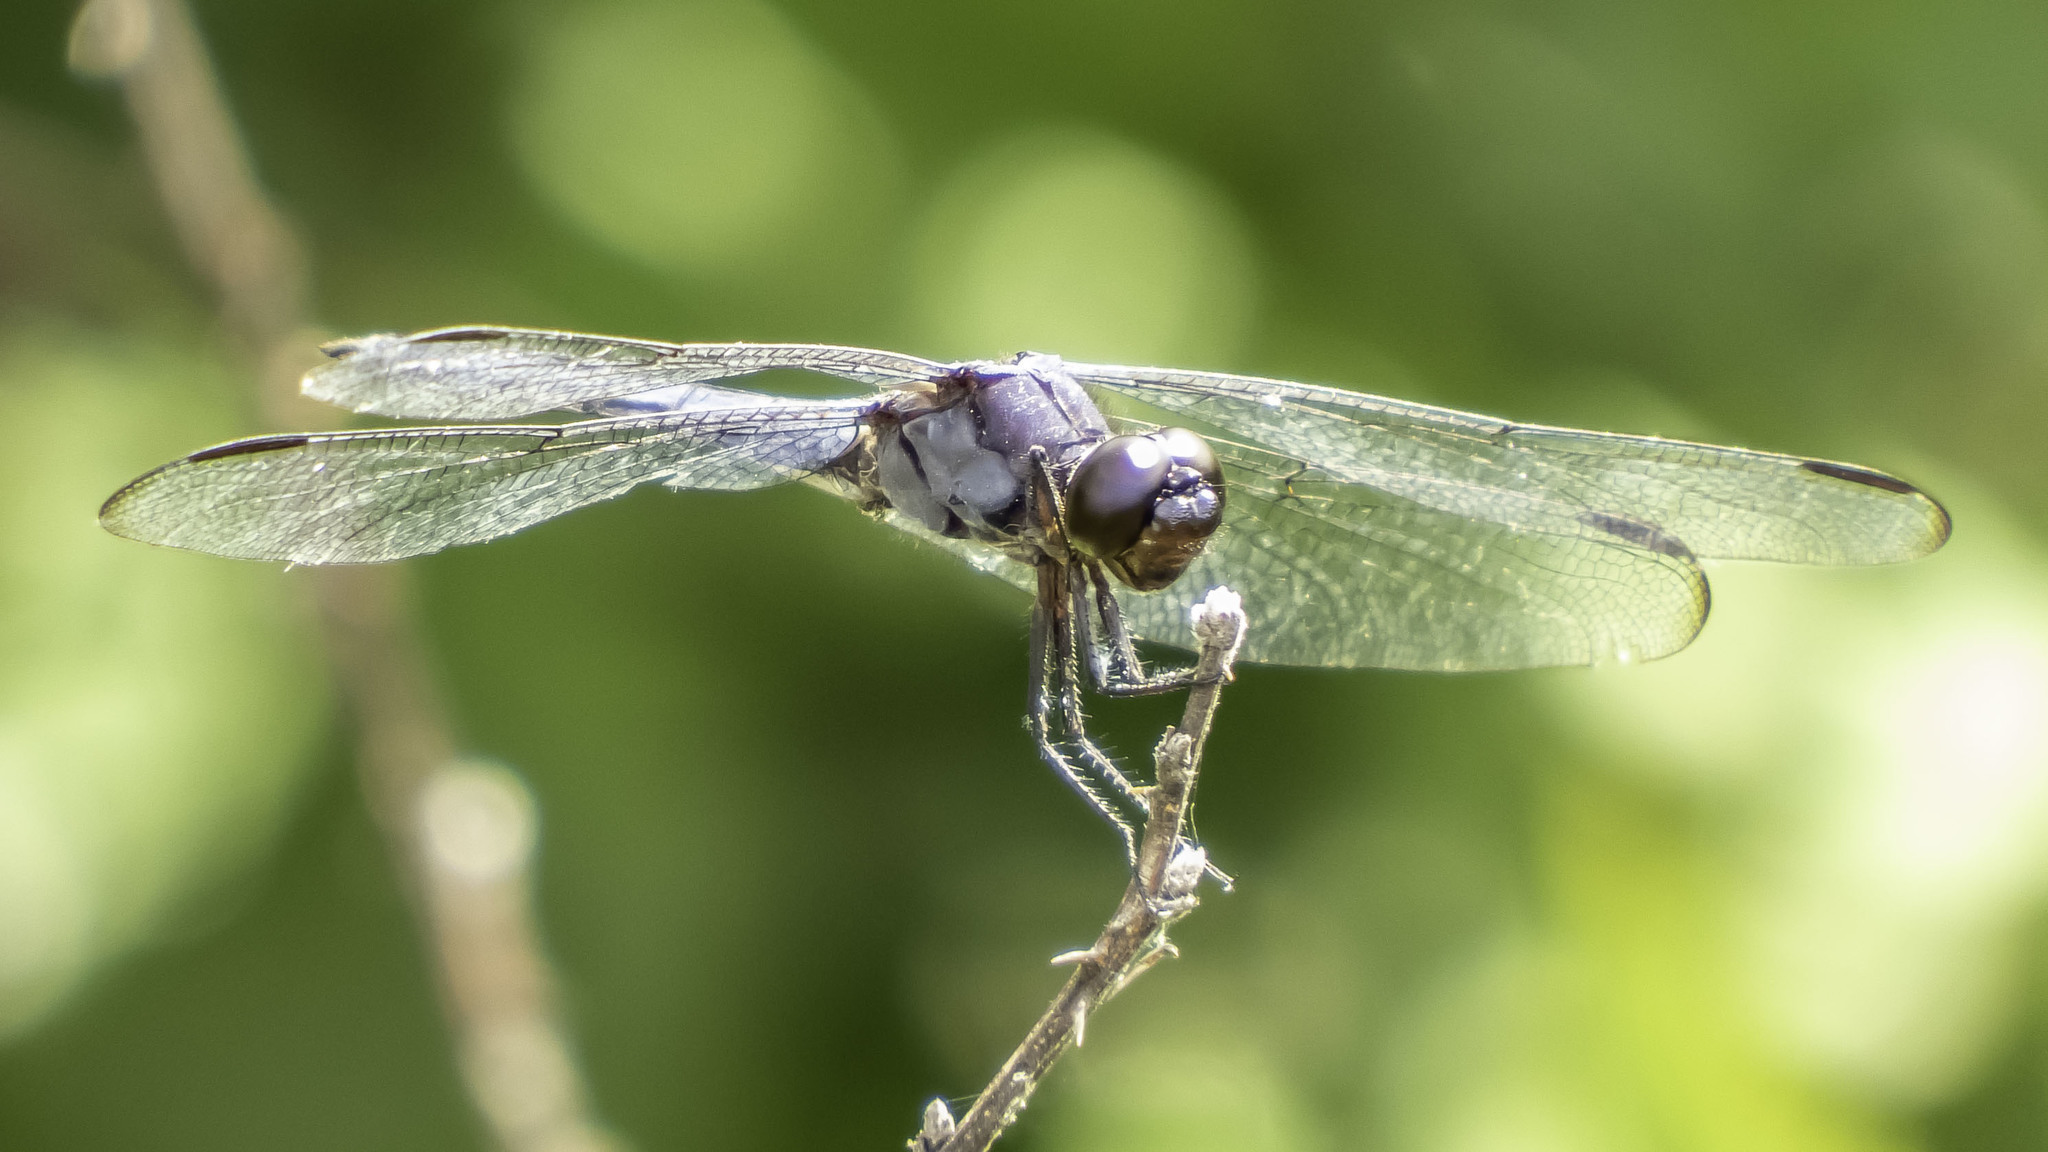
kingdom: Animalia
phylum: Arthropoda
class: Insecta
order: Odonata
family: Libellulidae
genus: Libellula
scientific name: Libellula incesta
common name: Slaty skimmer
